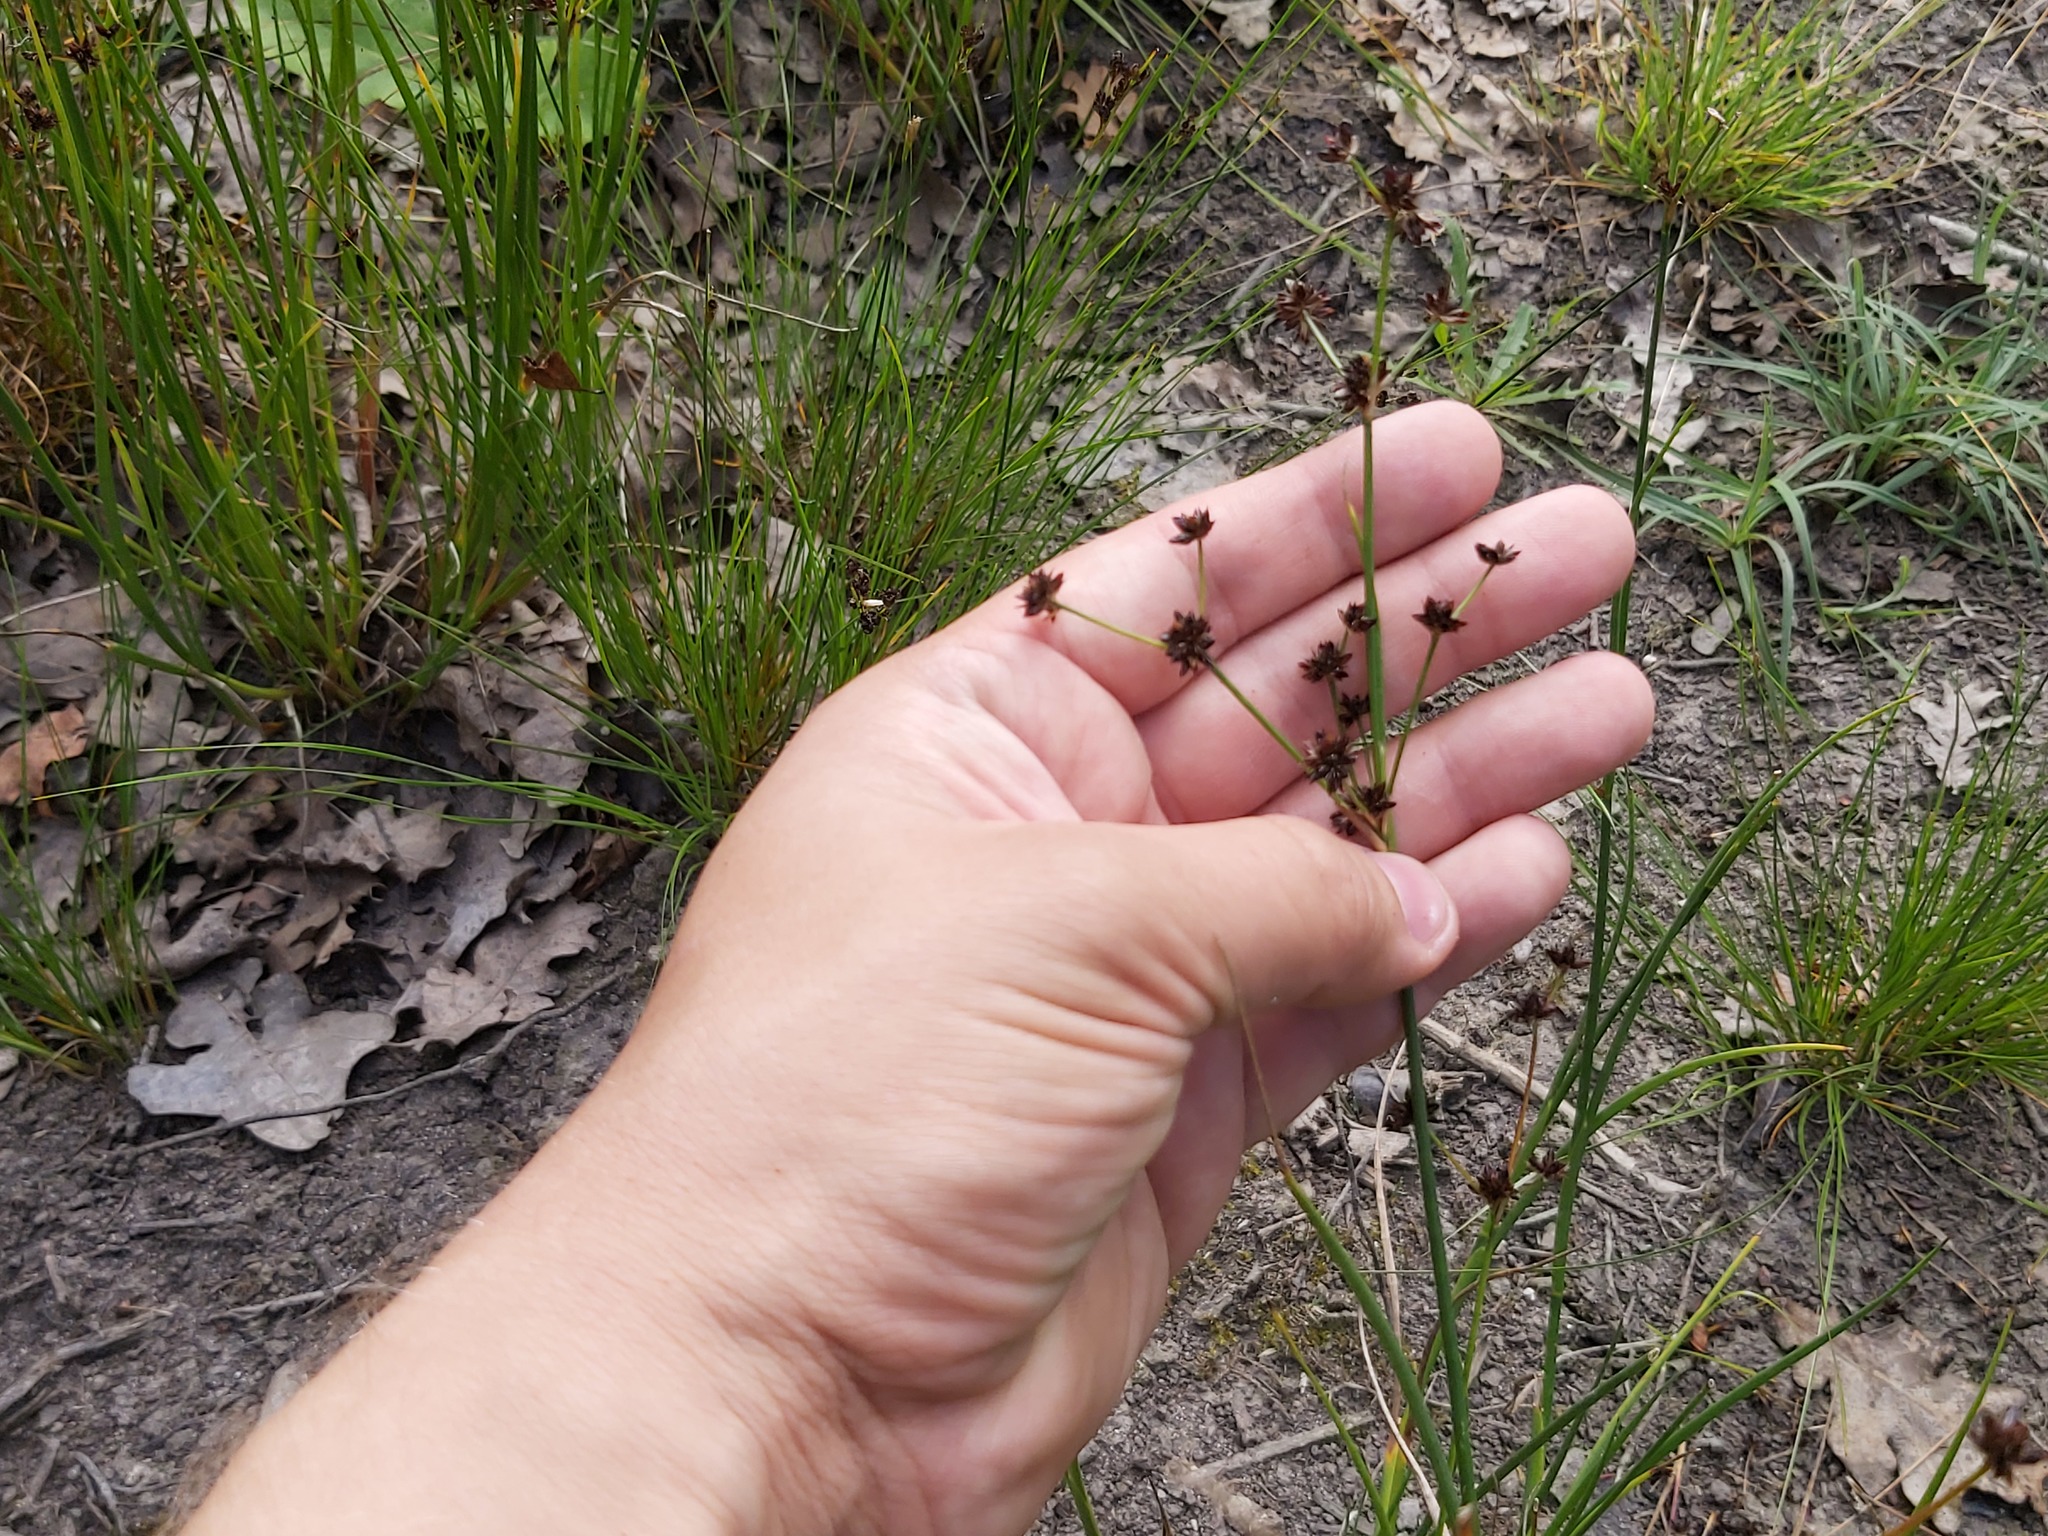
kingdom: Plantae
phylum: Tracheophyta
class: Liliopsida
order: Poales
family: Juncaceae
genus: Juncus
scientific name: Juncus articulatus
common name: Jointed rush
